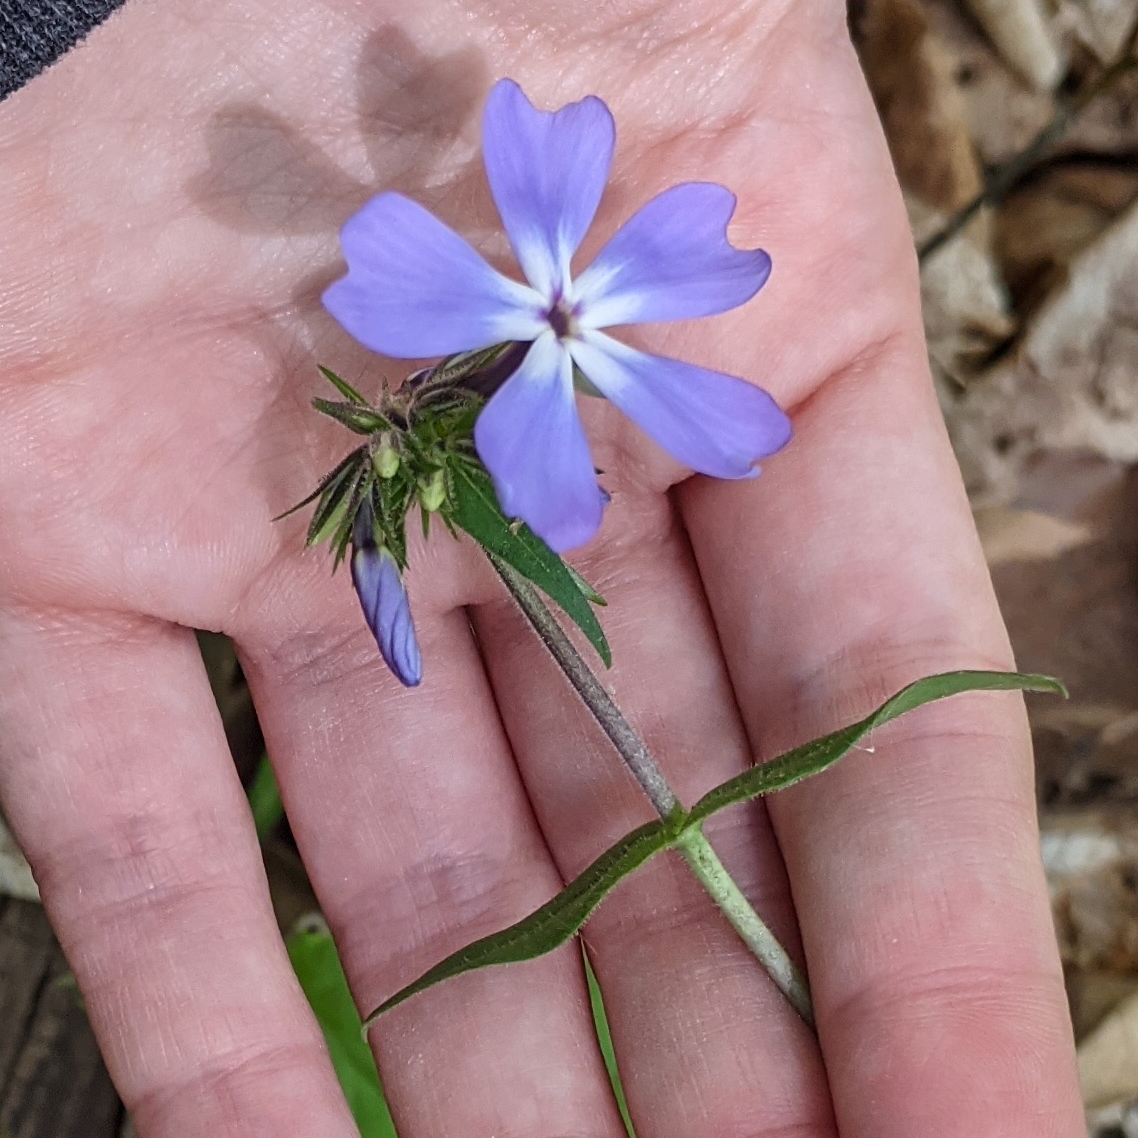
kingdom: Plantae
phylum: Tracheophyta
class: Magnoliopsida
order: Ericales
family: Polemoniaceae
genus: Phlox
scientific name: Phlox divaricata
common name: Blue phlox
